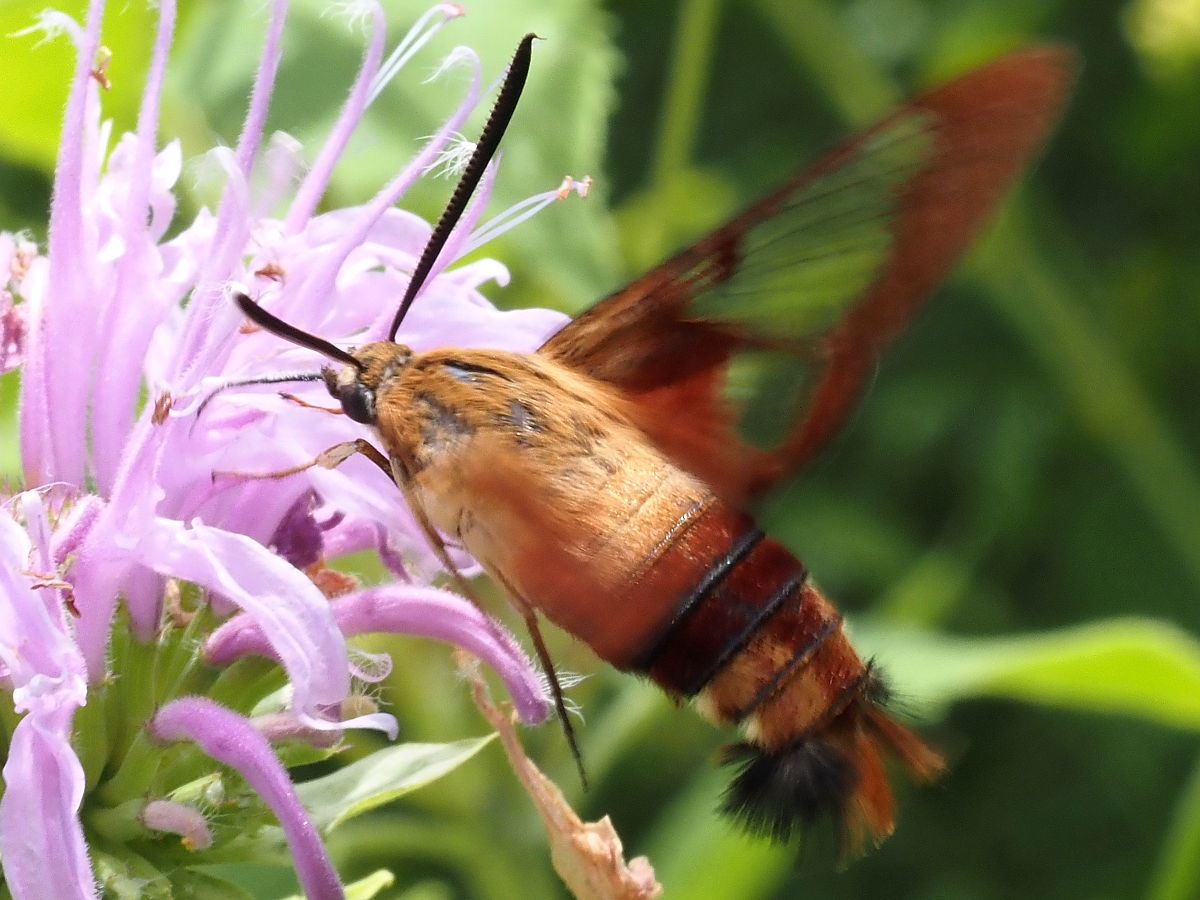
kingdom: Animalia
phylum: Arthropoda
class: Insecta
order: Lepidoptera
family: Sphingidae
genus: Hemaris
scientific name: Hemaris thysbe
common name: Common clear-wing
